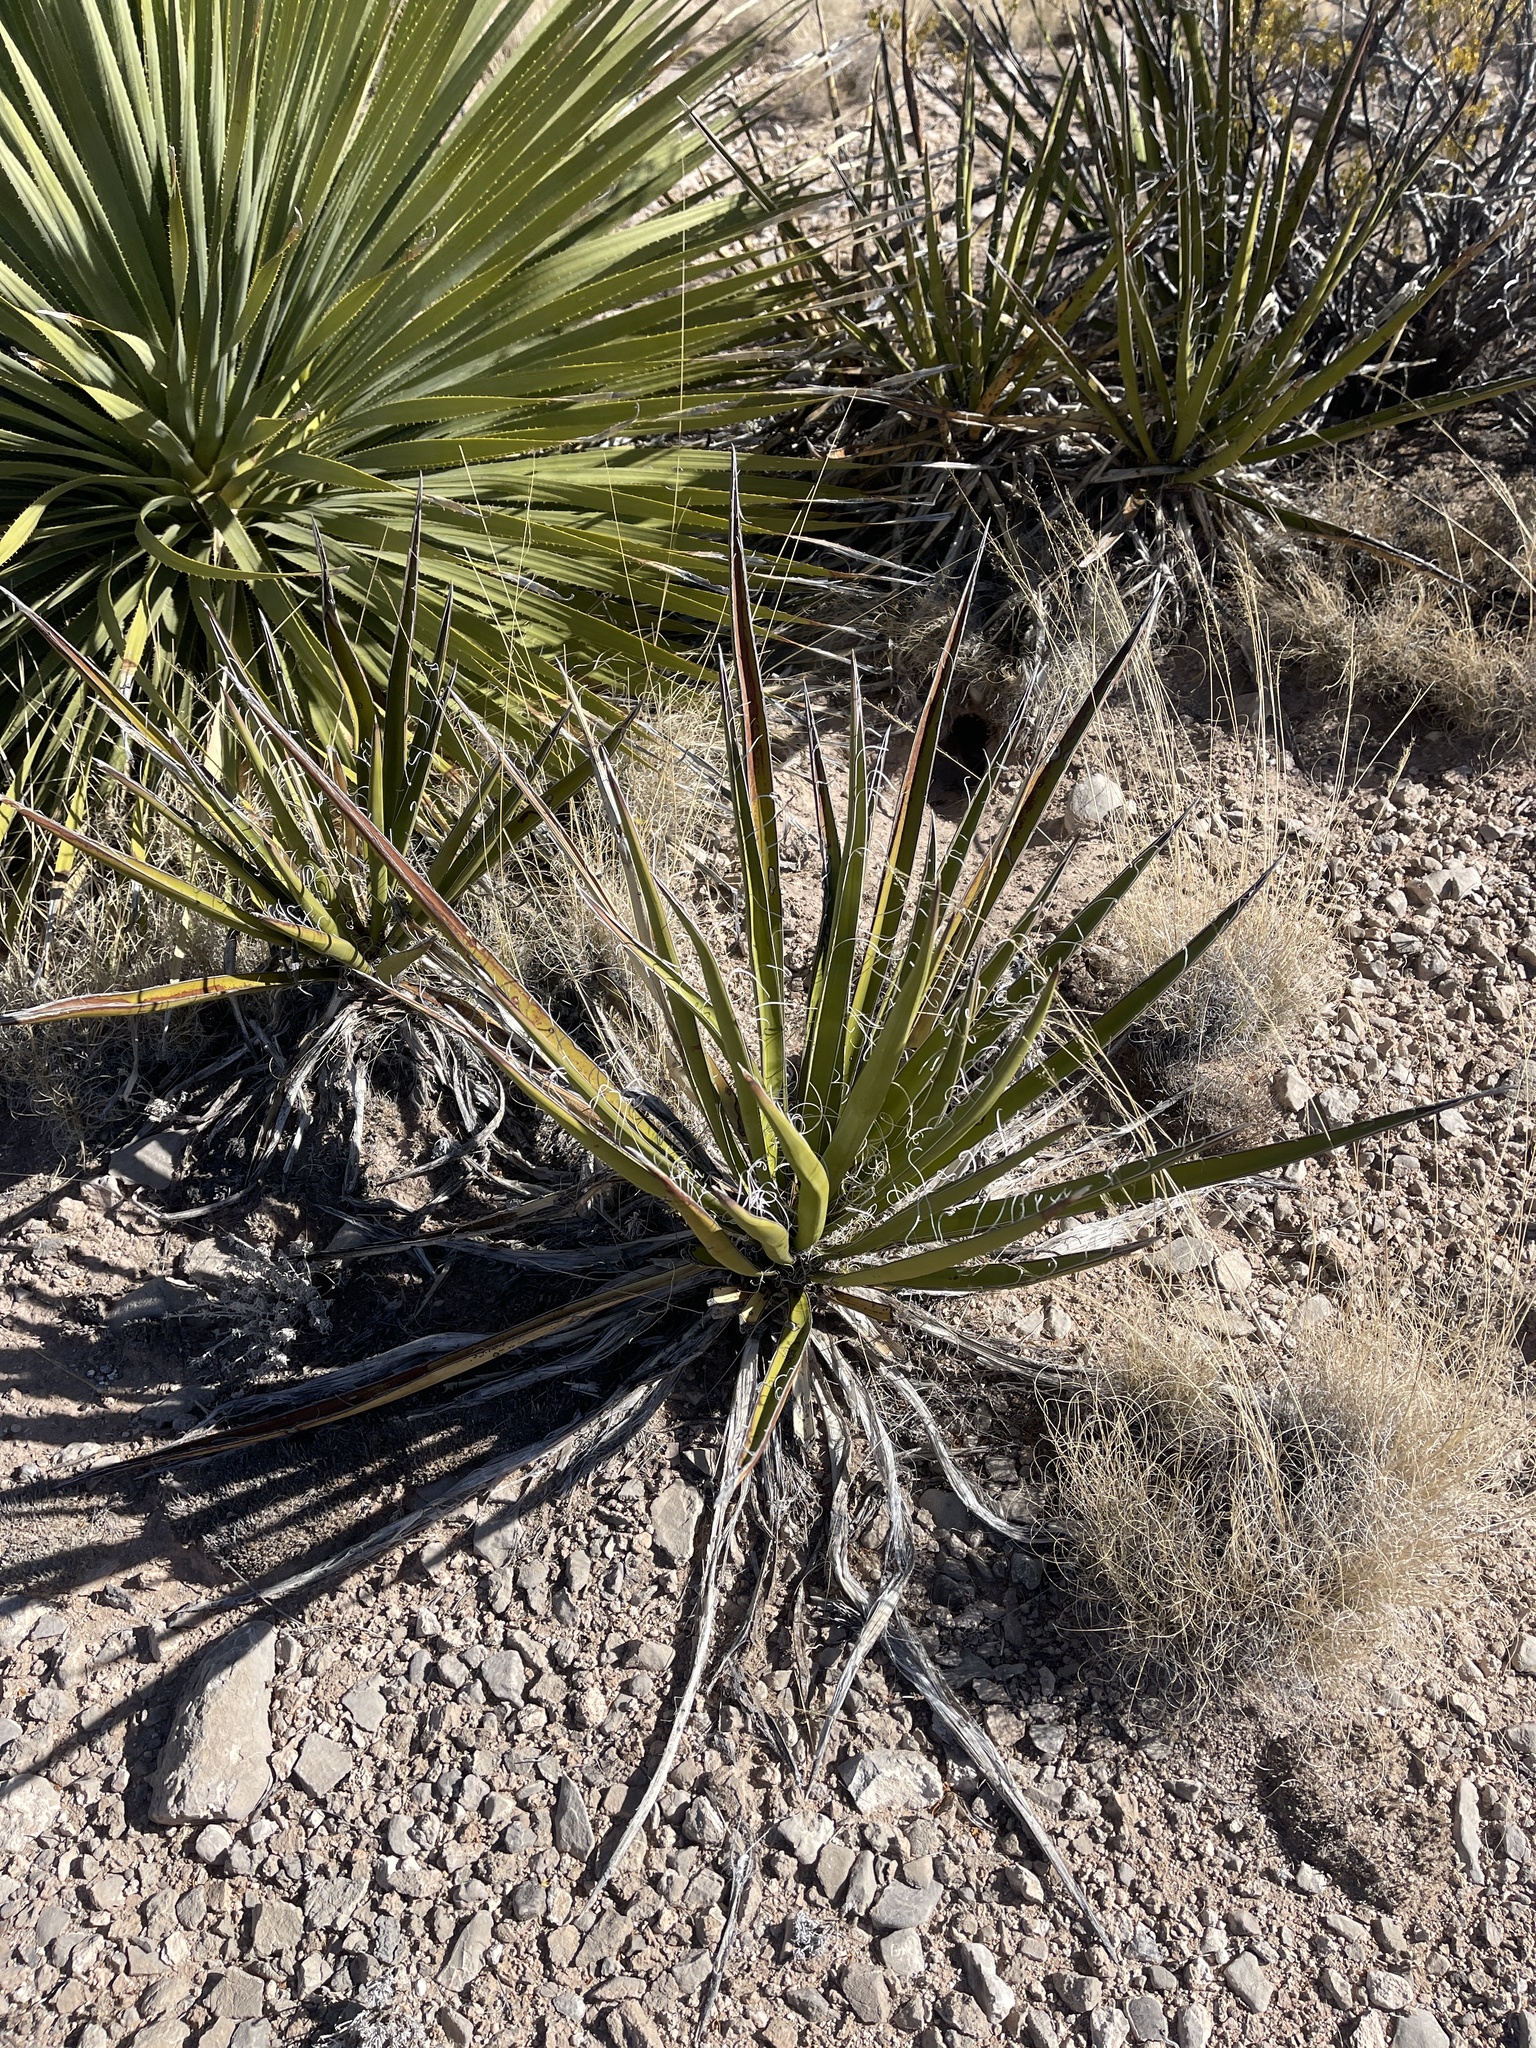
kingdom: Plantae
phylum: Tracheophyta
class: Liliopsida
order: Asparagales
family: Asparagaceae
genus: Yucca
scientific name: Yucca baccata
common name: Banana yucca
